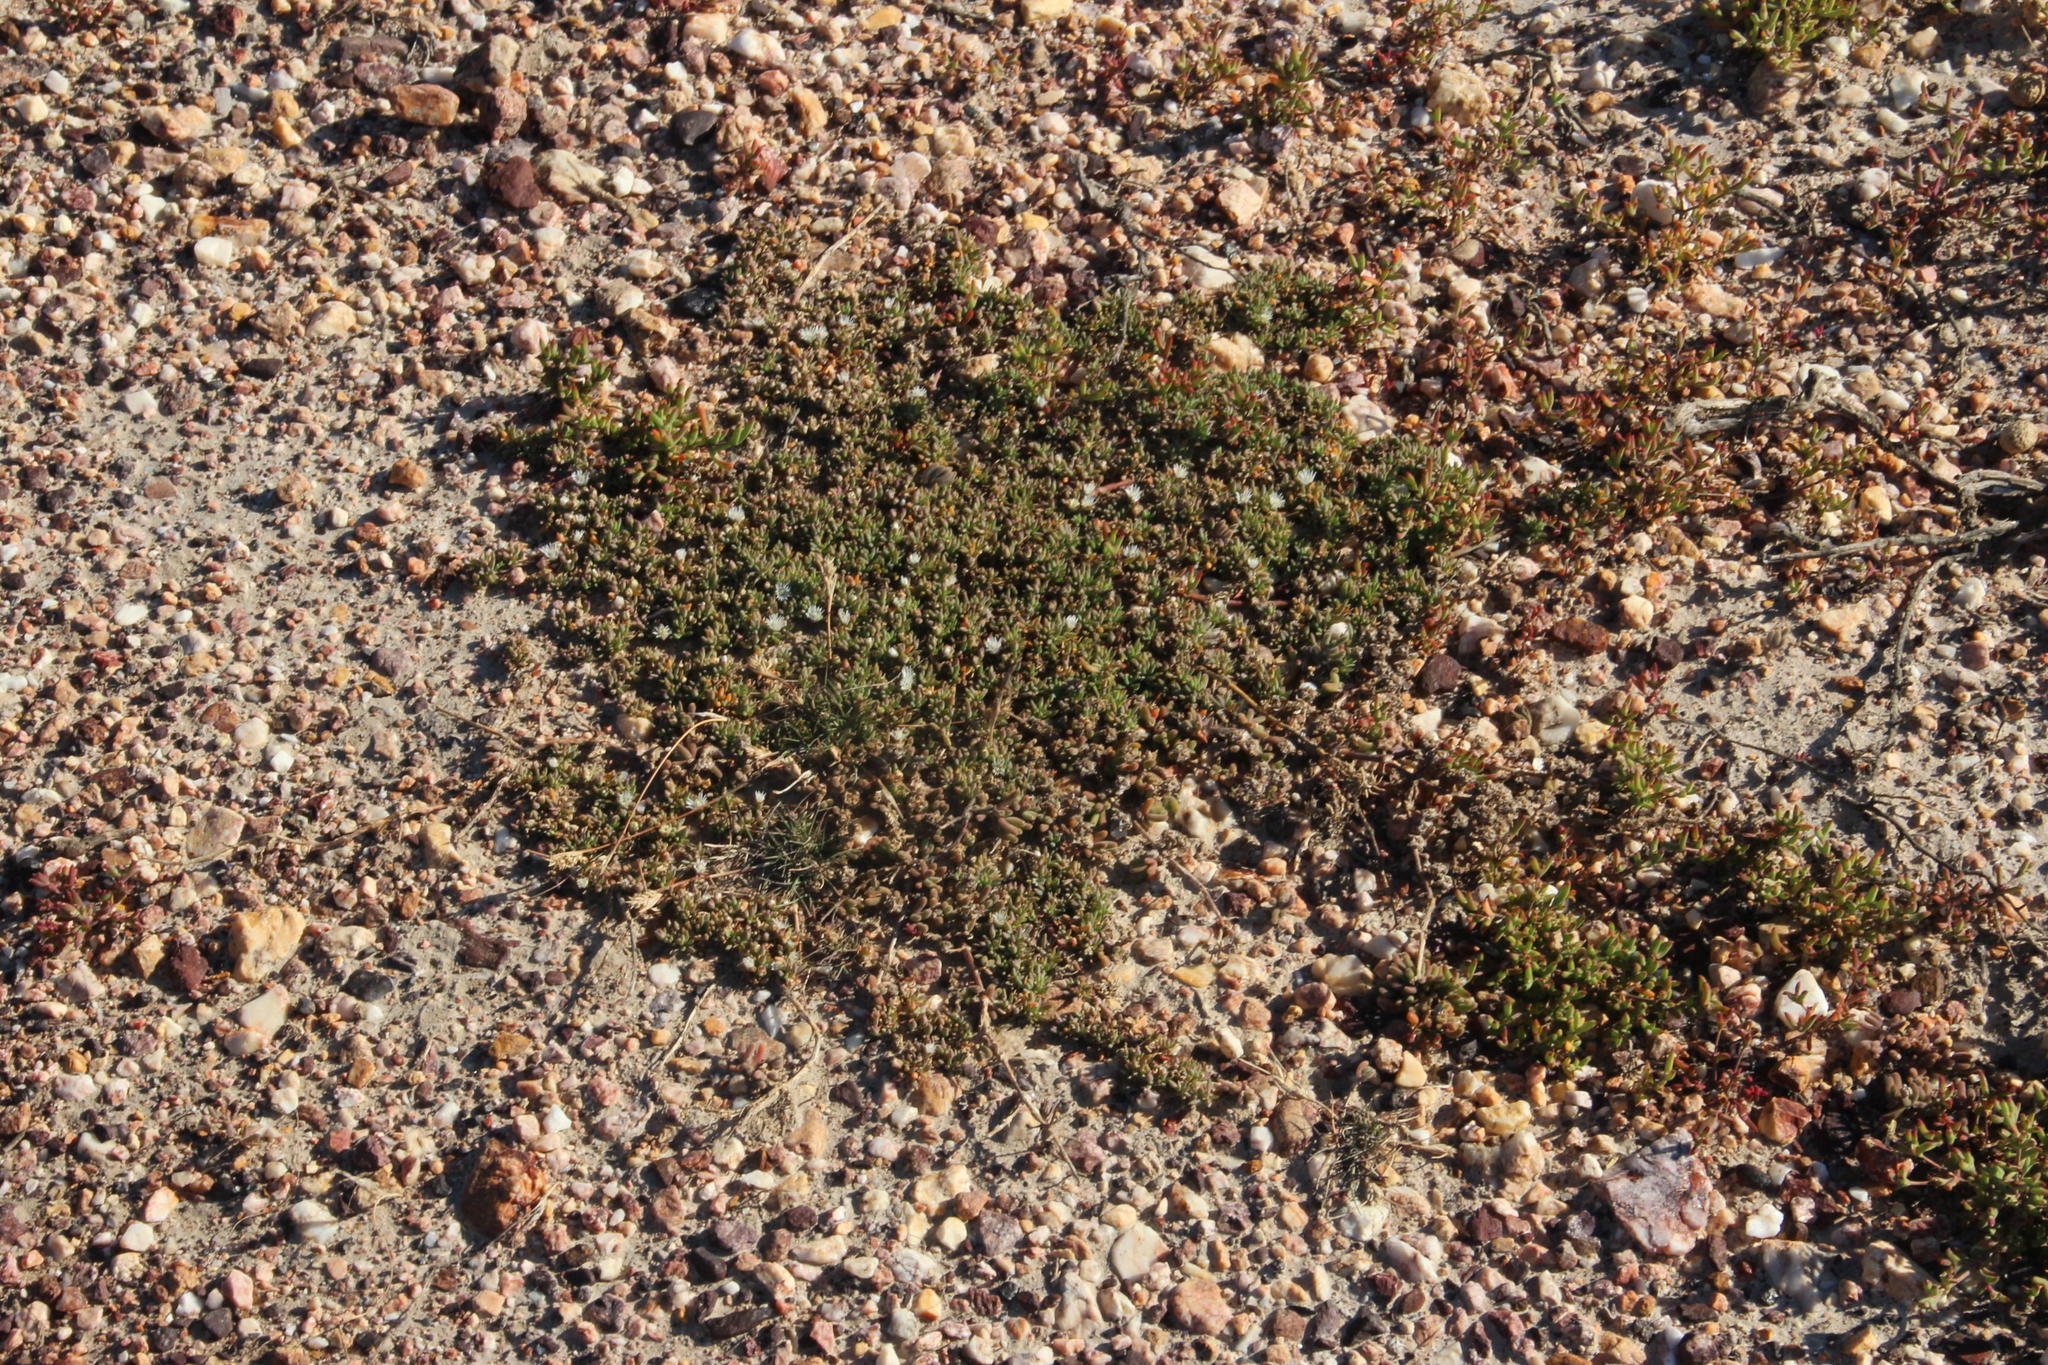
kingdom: Plantae
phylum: Tracheophyta
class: Magnoliopsida
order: Caryophyllales
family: Aizoaceae
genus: Mesembryanthemum
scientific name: Mesembryanthemum parviflorum
